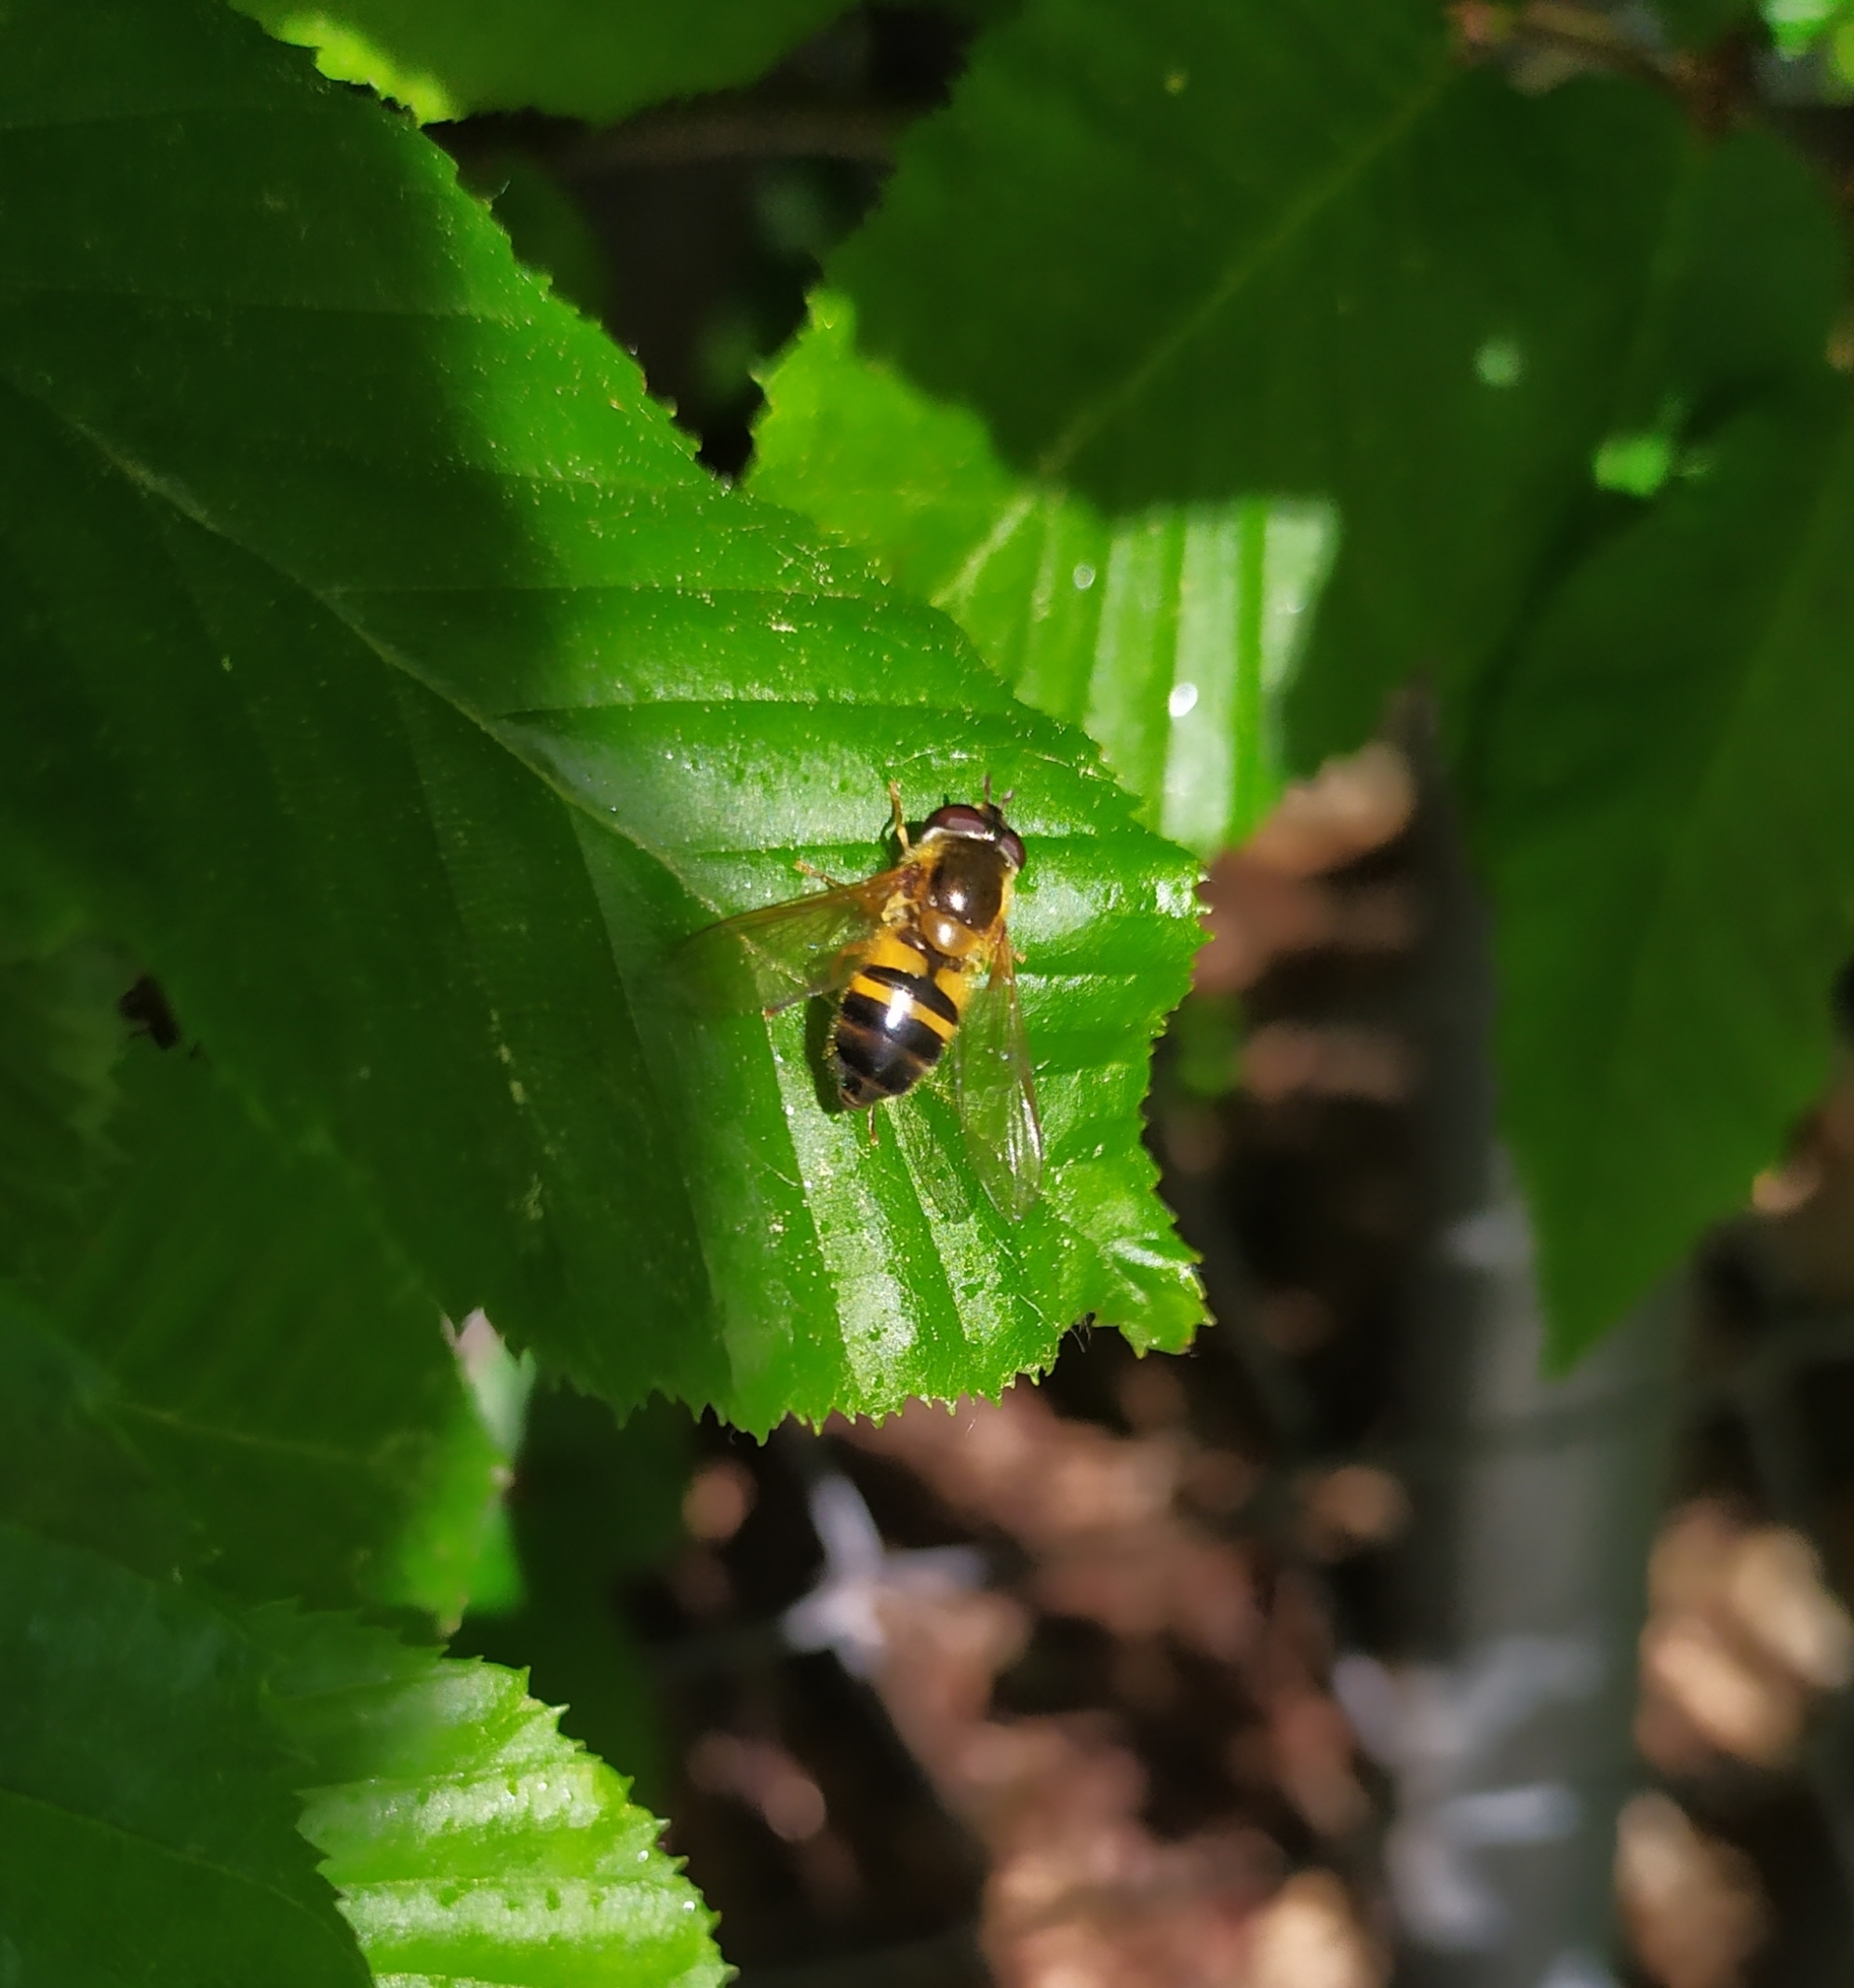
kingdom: Animalia
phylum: Arthropoda
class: Insecta
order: Diptera
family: Syrphidae
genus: Epistrophe
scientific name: Epistrophe eligans
